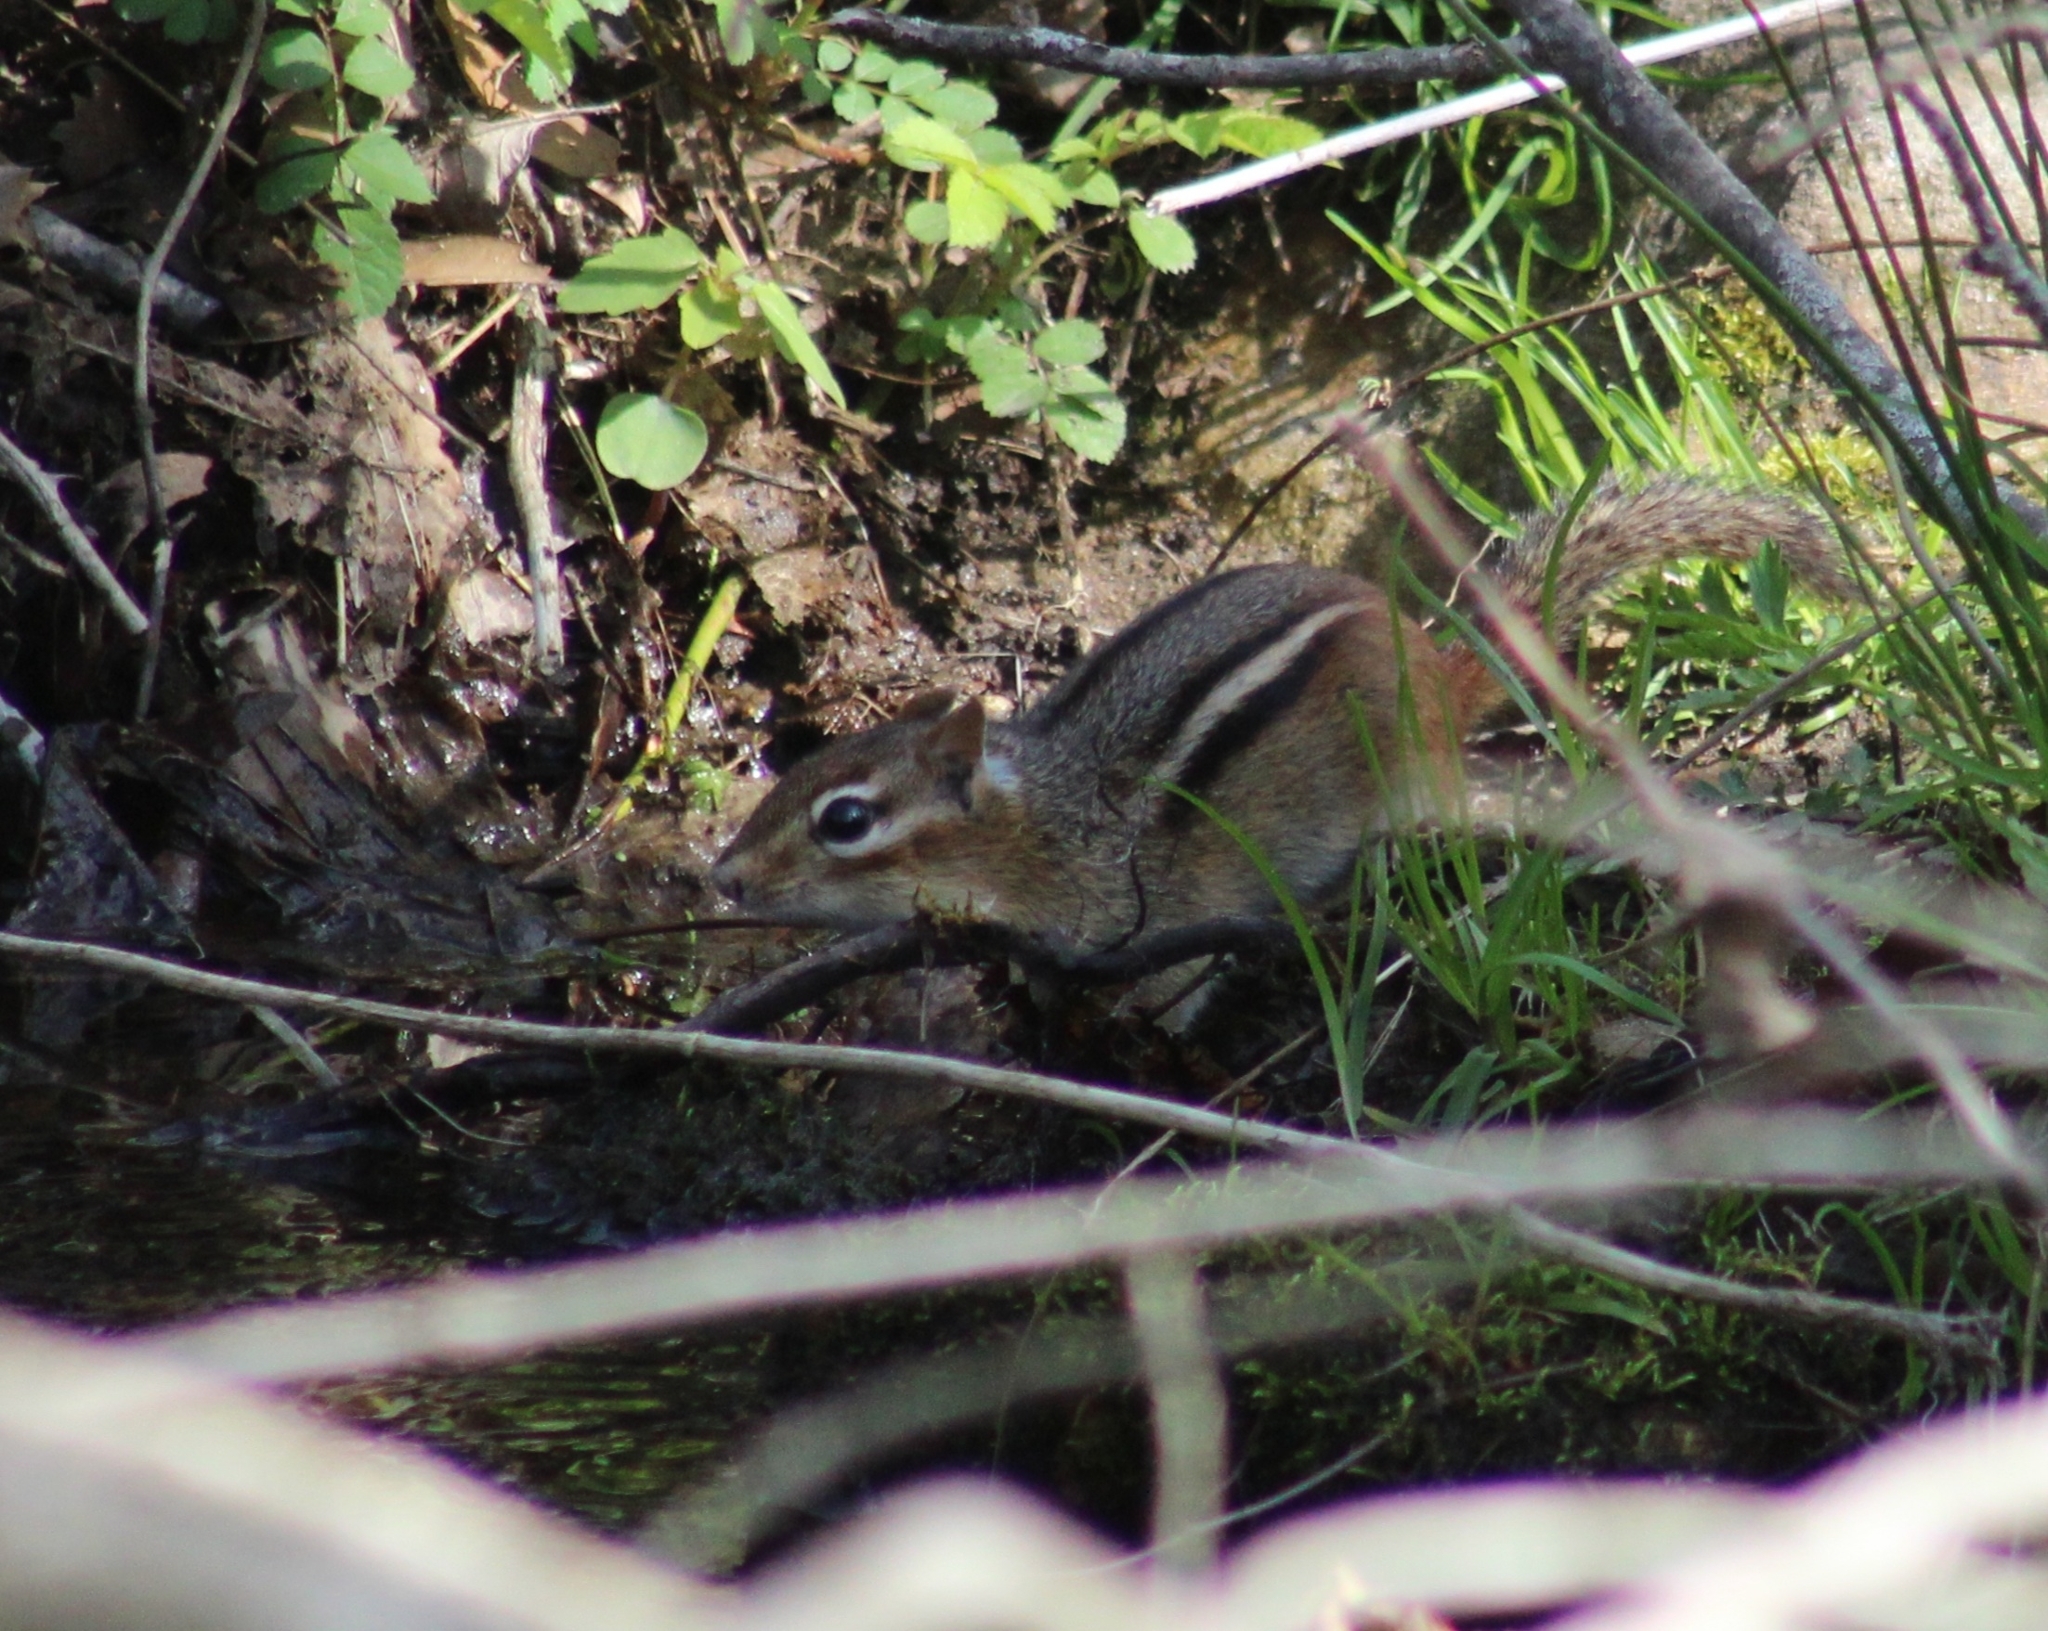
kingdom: Animalia
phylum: Chordata
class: Mammalia
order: Rodentia
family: Sciuridae
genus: Tamias
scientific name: Tamias striatus
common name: Eastern chipmunk
